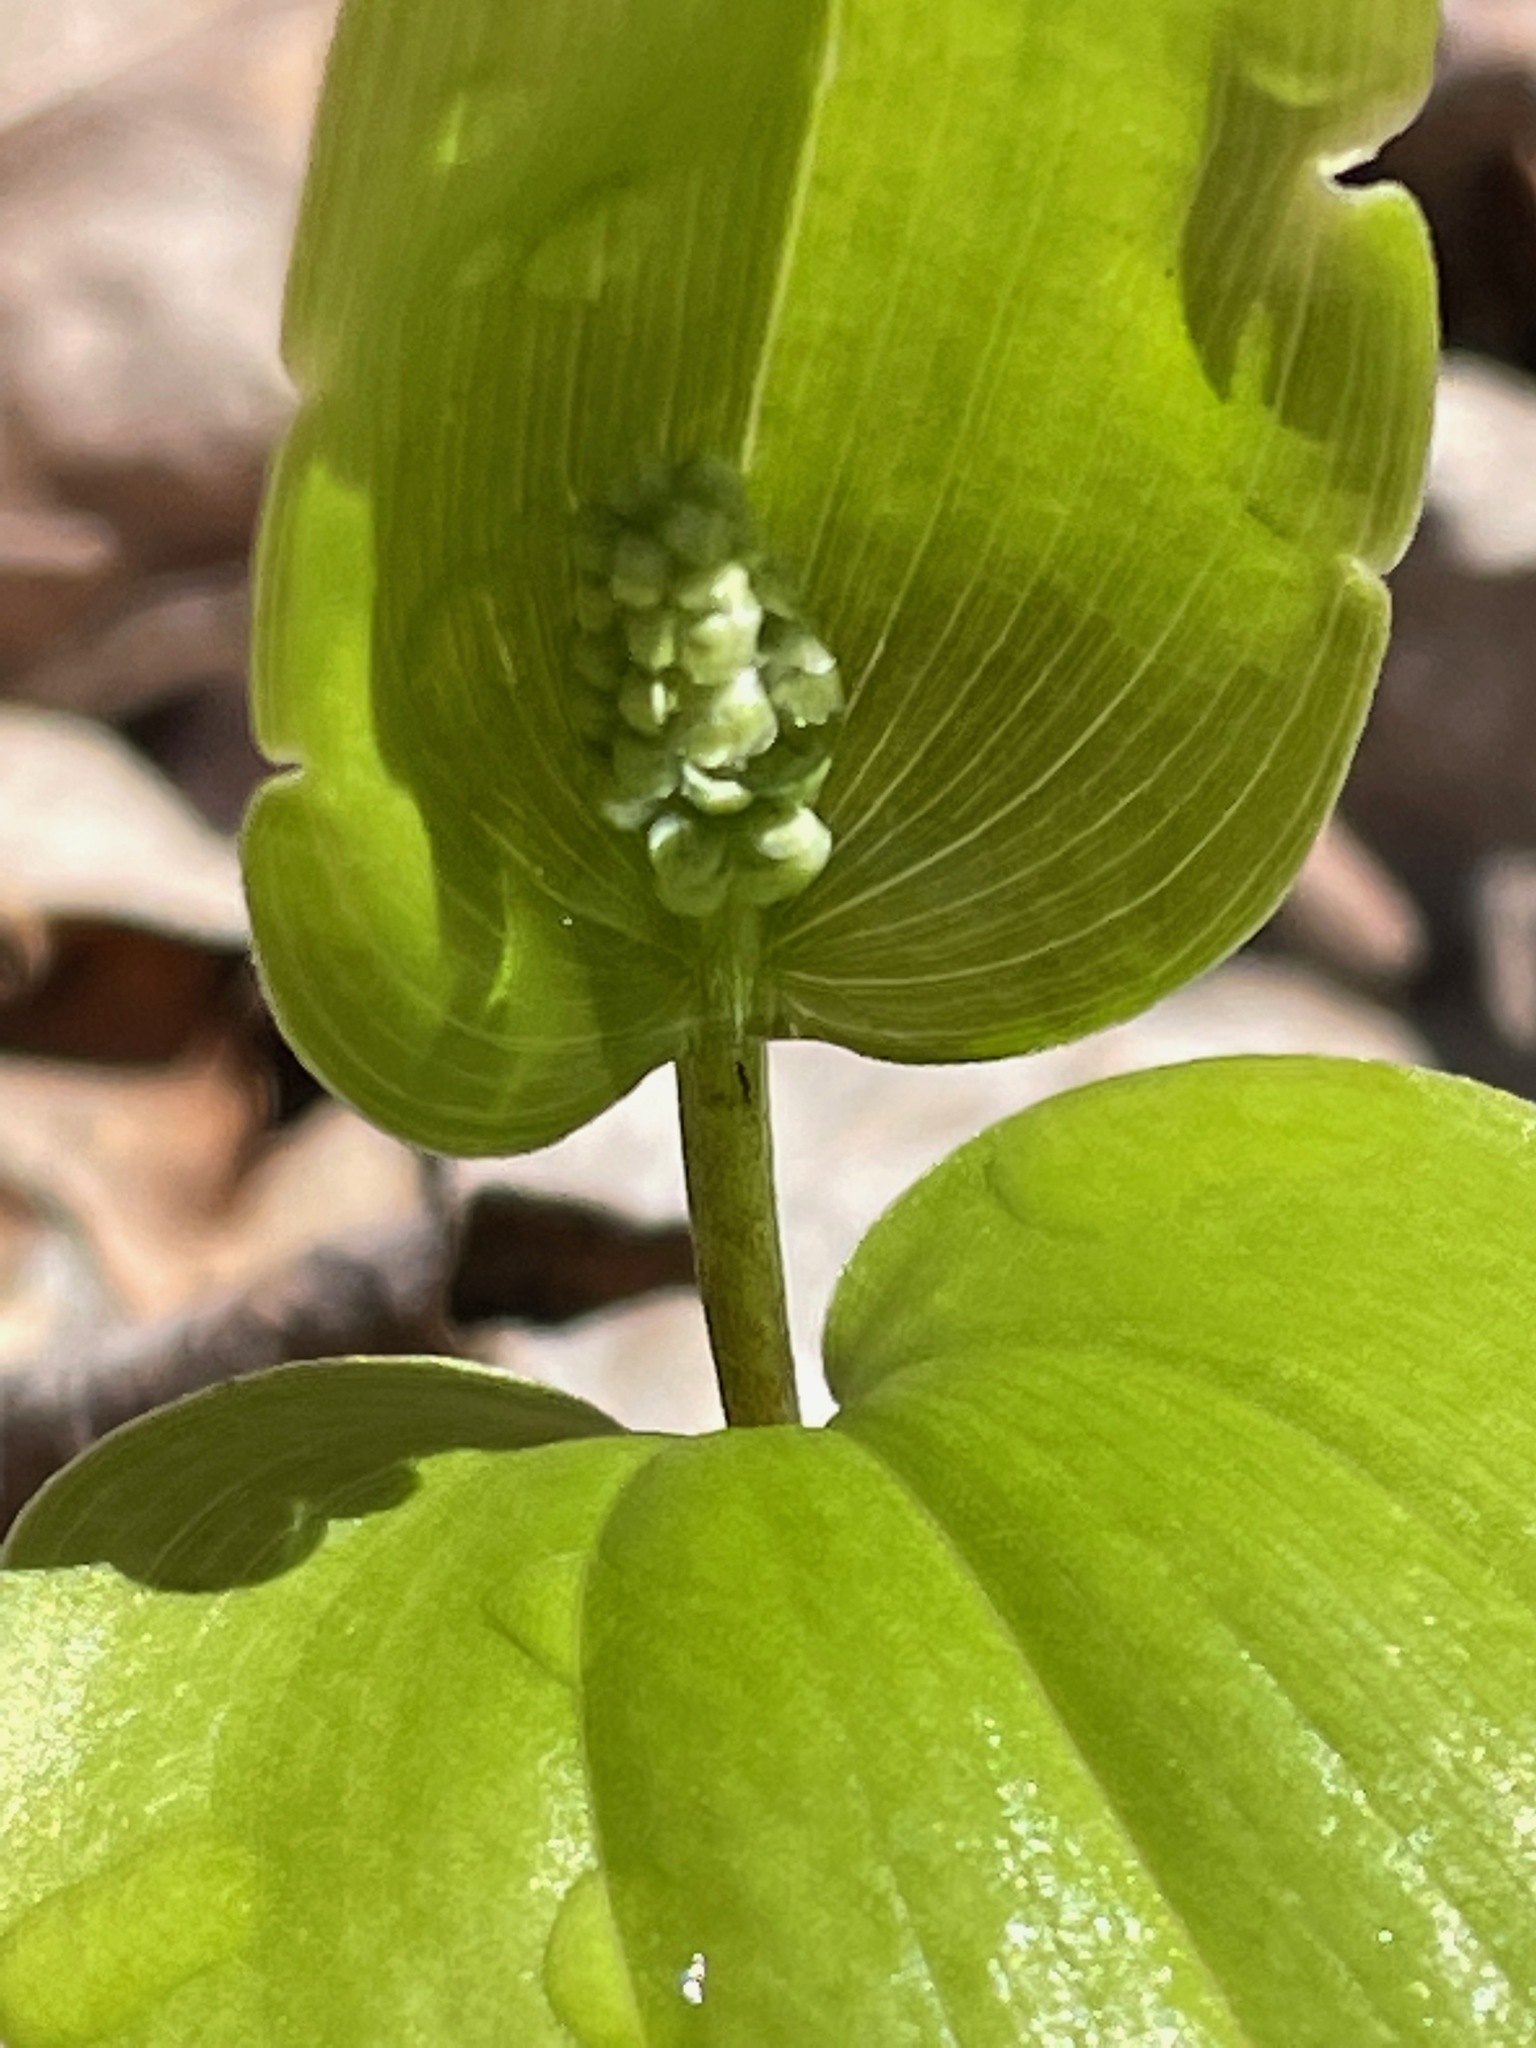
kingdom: Plantae
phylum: Tracheophyta
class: Liliopsida
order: Asparagales
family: Asparagaceae
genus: Maianthemum
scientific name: Maianthemum canadense
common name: False lily-of-the-valley
